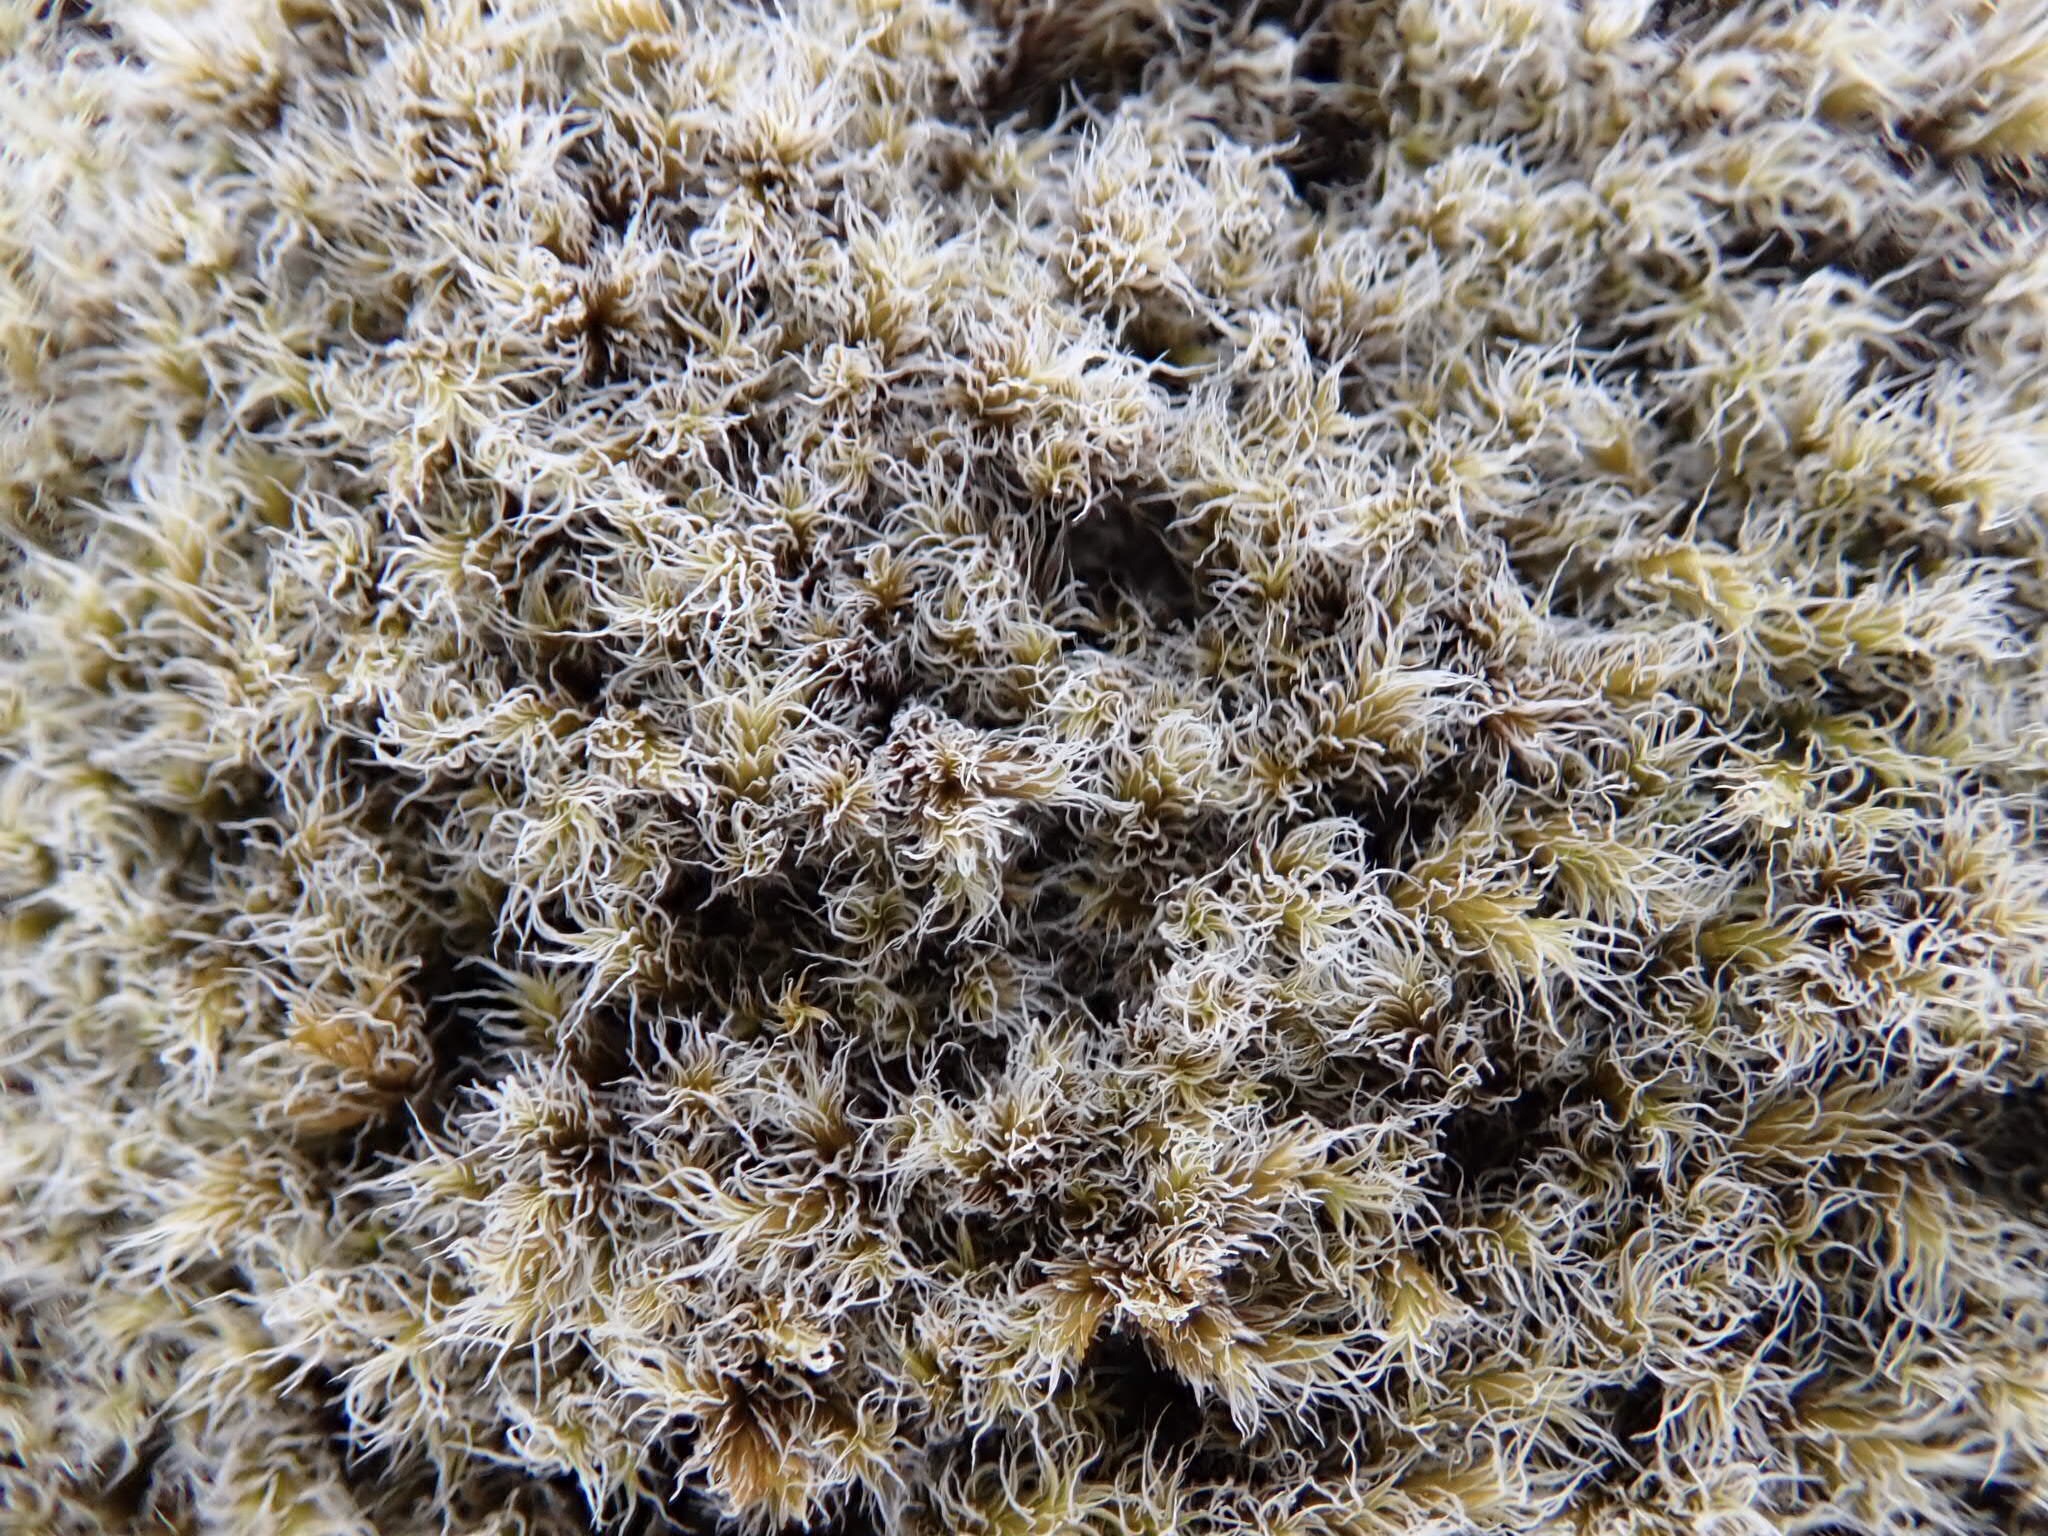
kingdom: Plantae
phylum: Bryophyta
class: Bryopsida
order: Grimmiales
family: Grimmiaceae
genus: Racomitrium
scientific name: Racomitrium lanuginosum
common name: Hoary rock moss
